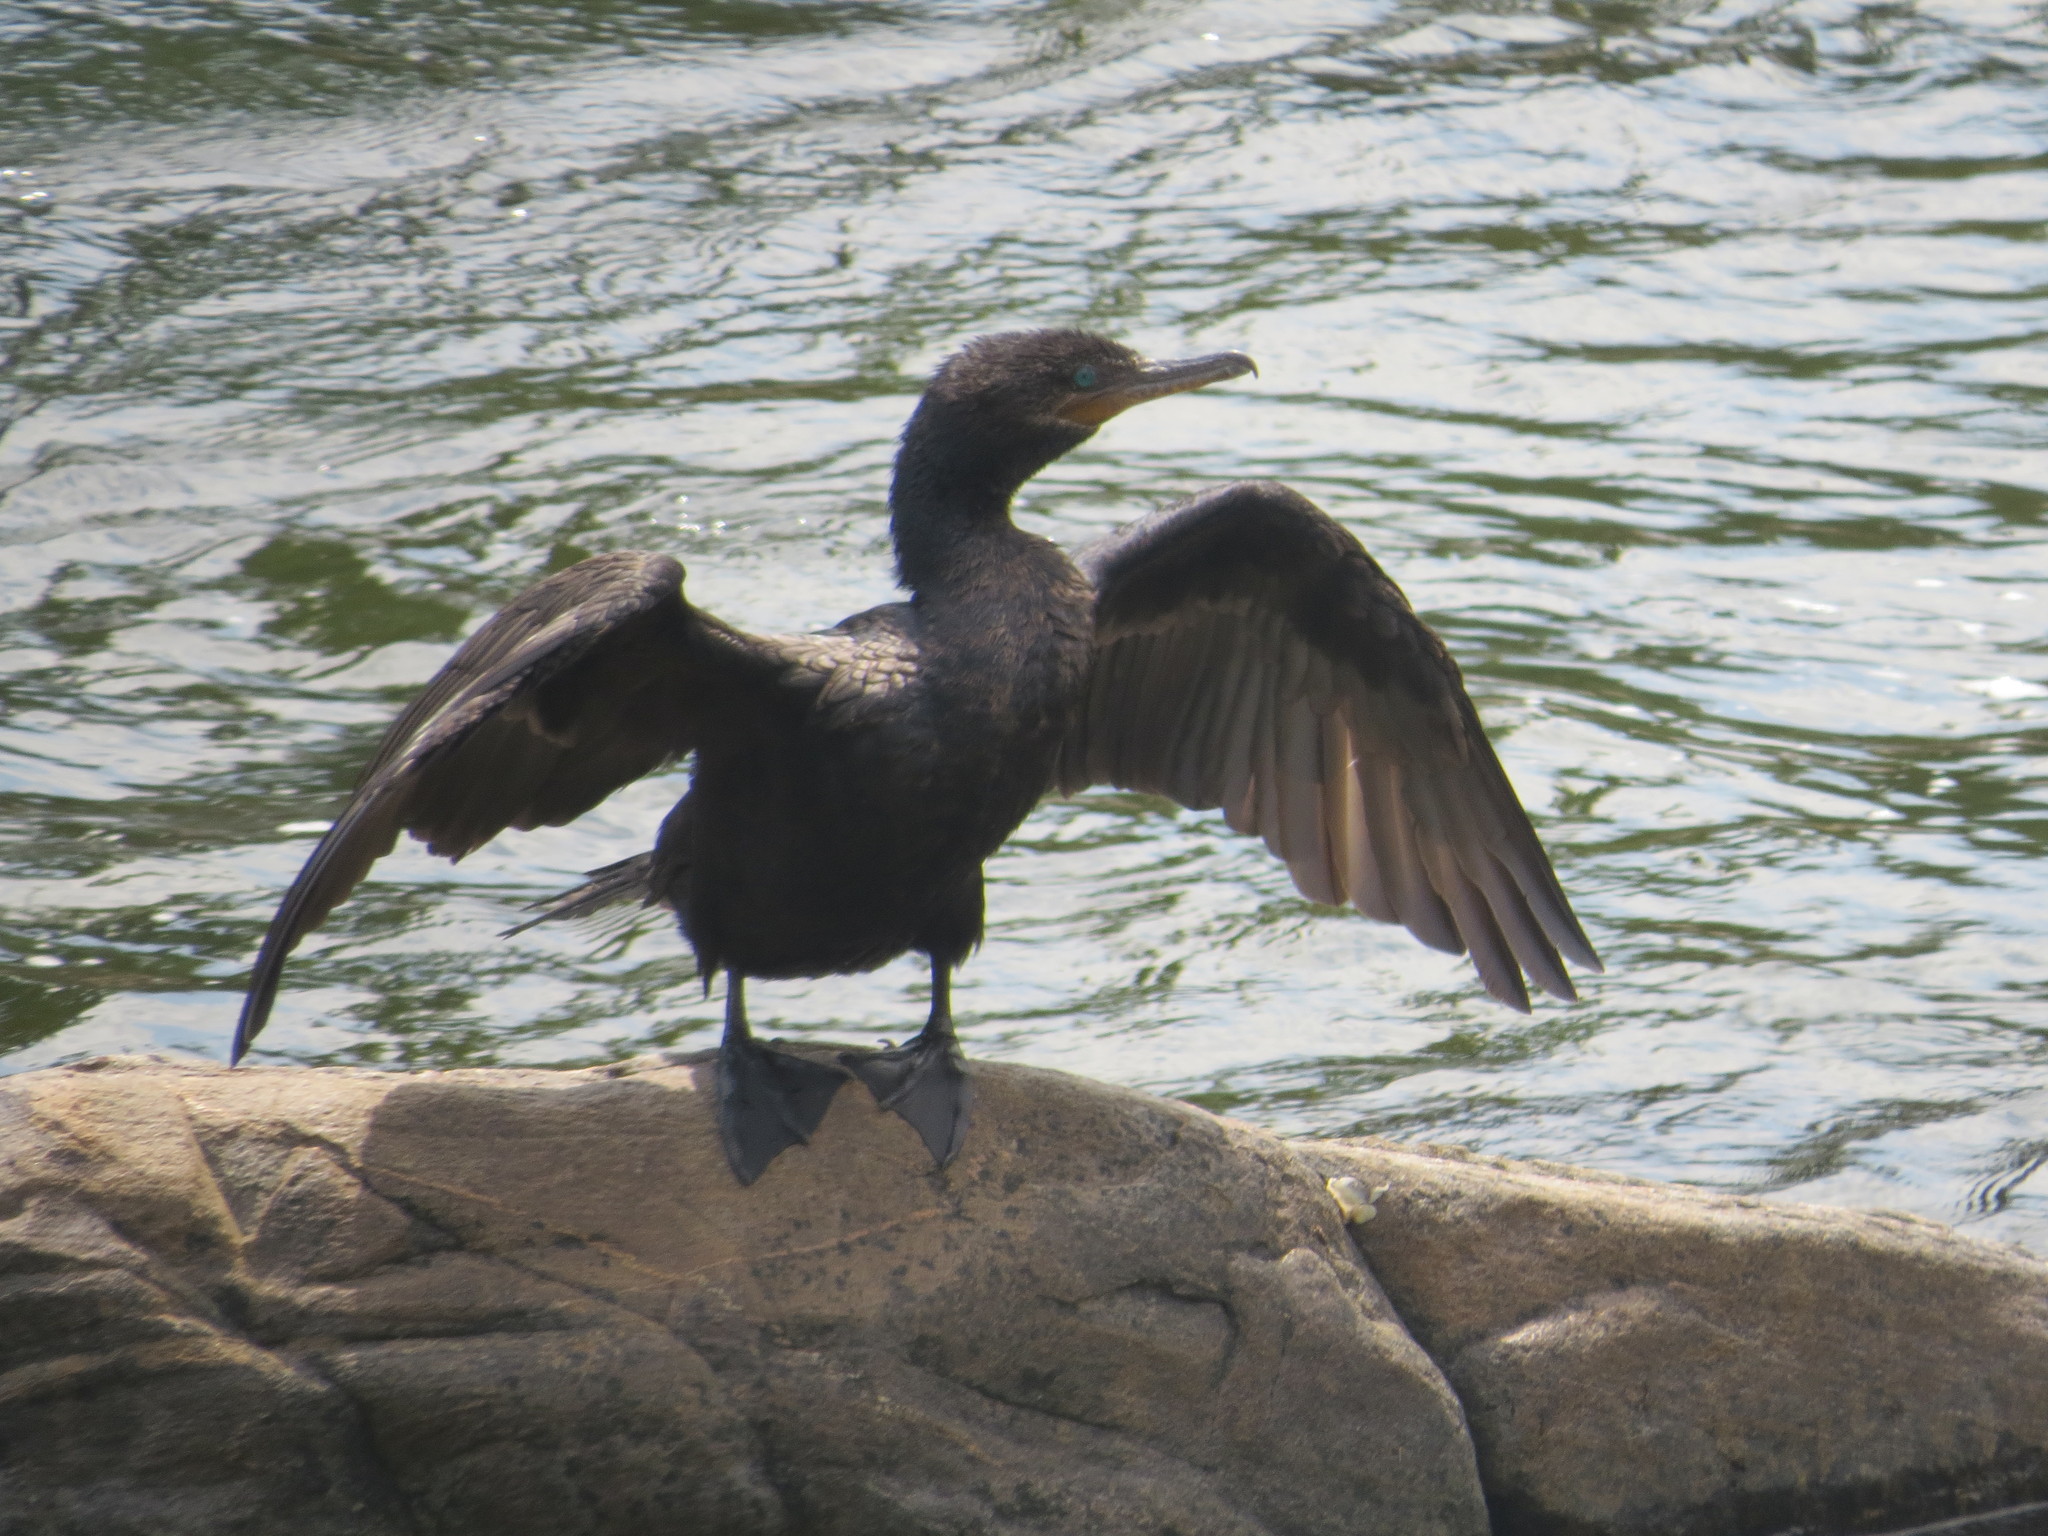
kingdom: Animalia
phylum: Chordata
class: Aves
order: Suliformes
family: Phalacrocoracidae
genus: Phalacrocorax
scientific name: Phalacrocorax brasilianus
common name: Neotropic cormorant
